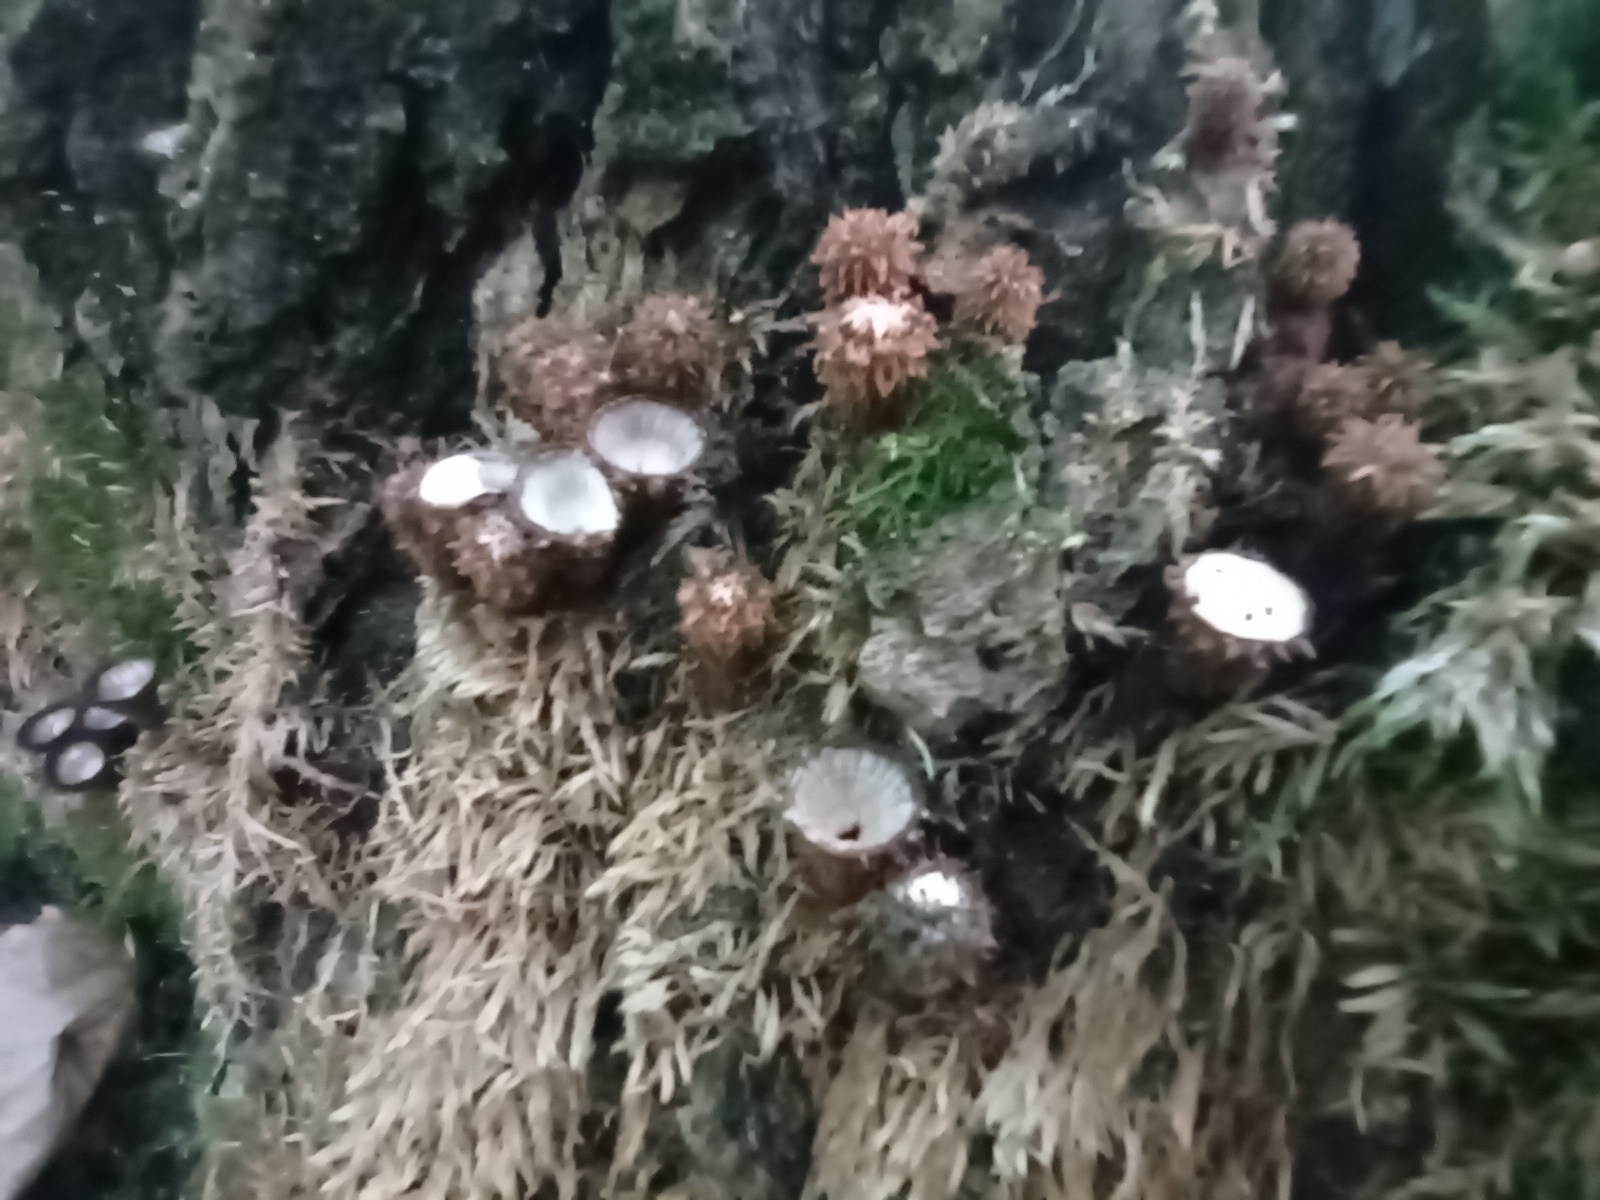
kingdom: Fungi
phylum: Basidiomycota
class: Agaricomycetes
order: Agaricales
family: Agaricaceae
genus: Cyathus
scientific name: Cyathus striatus
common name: Fluted bird's nest
